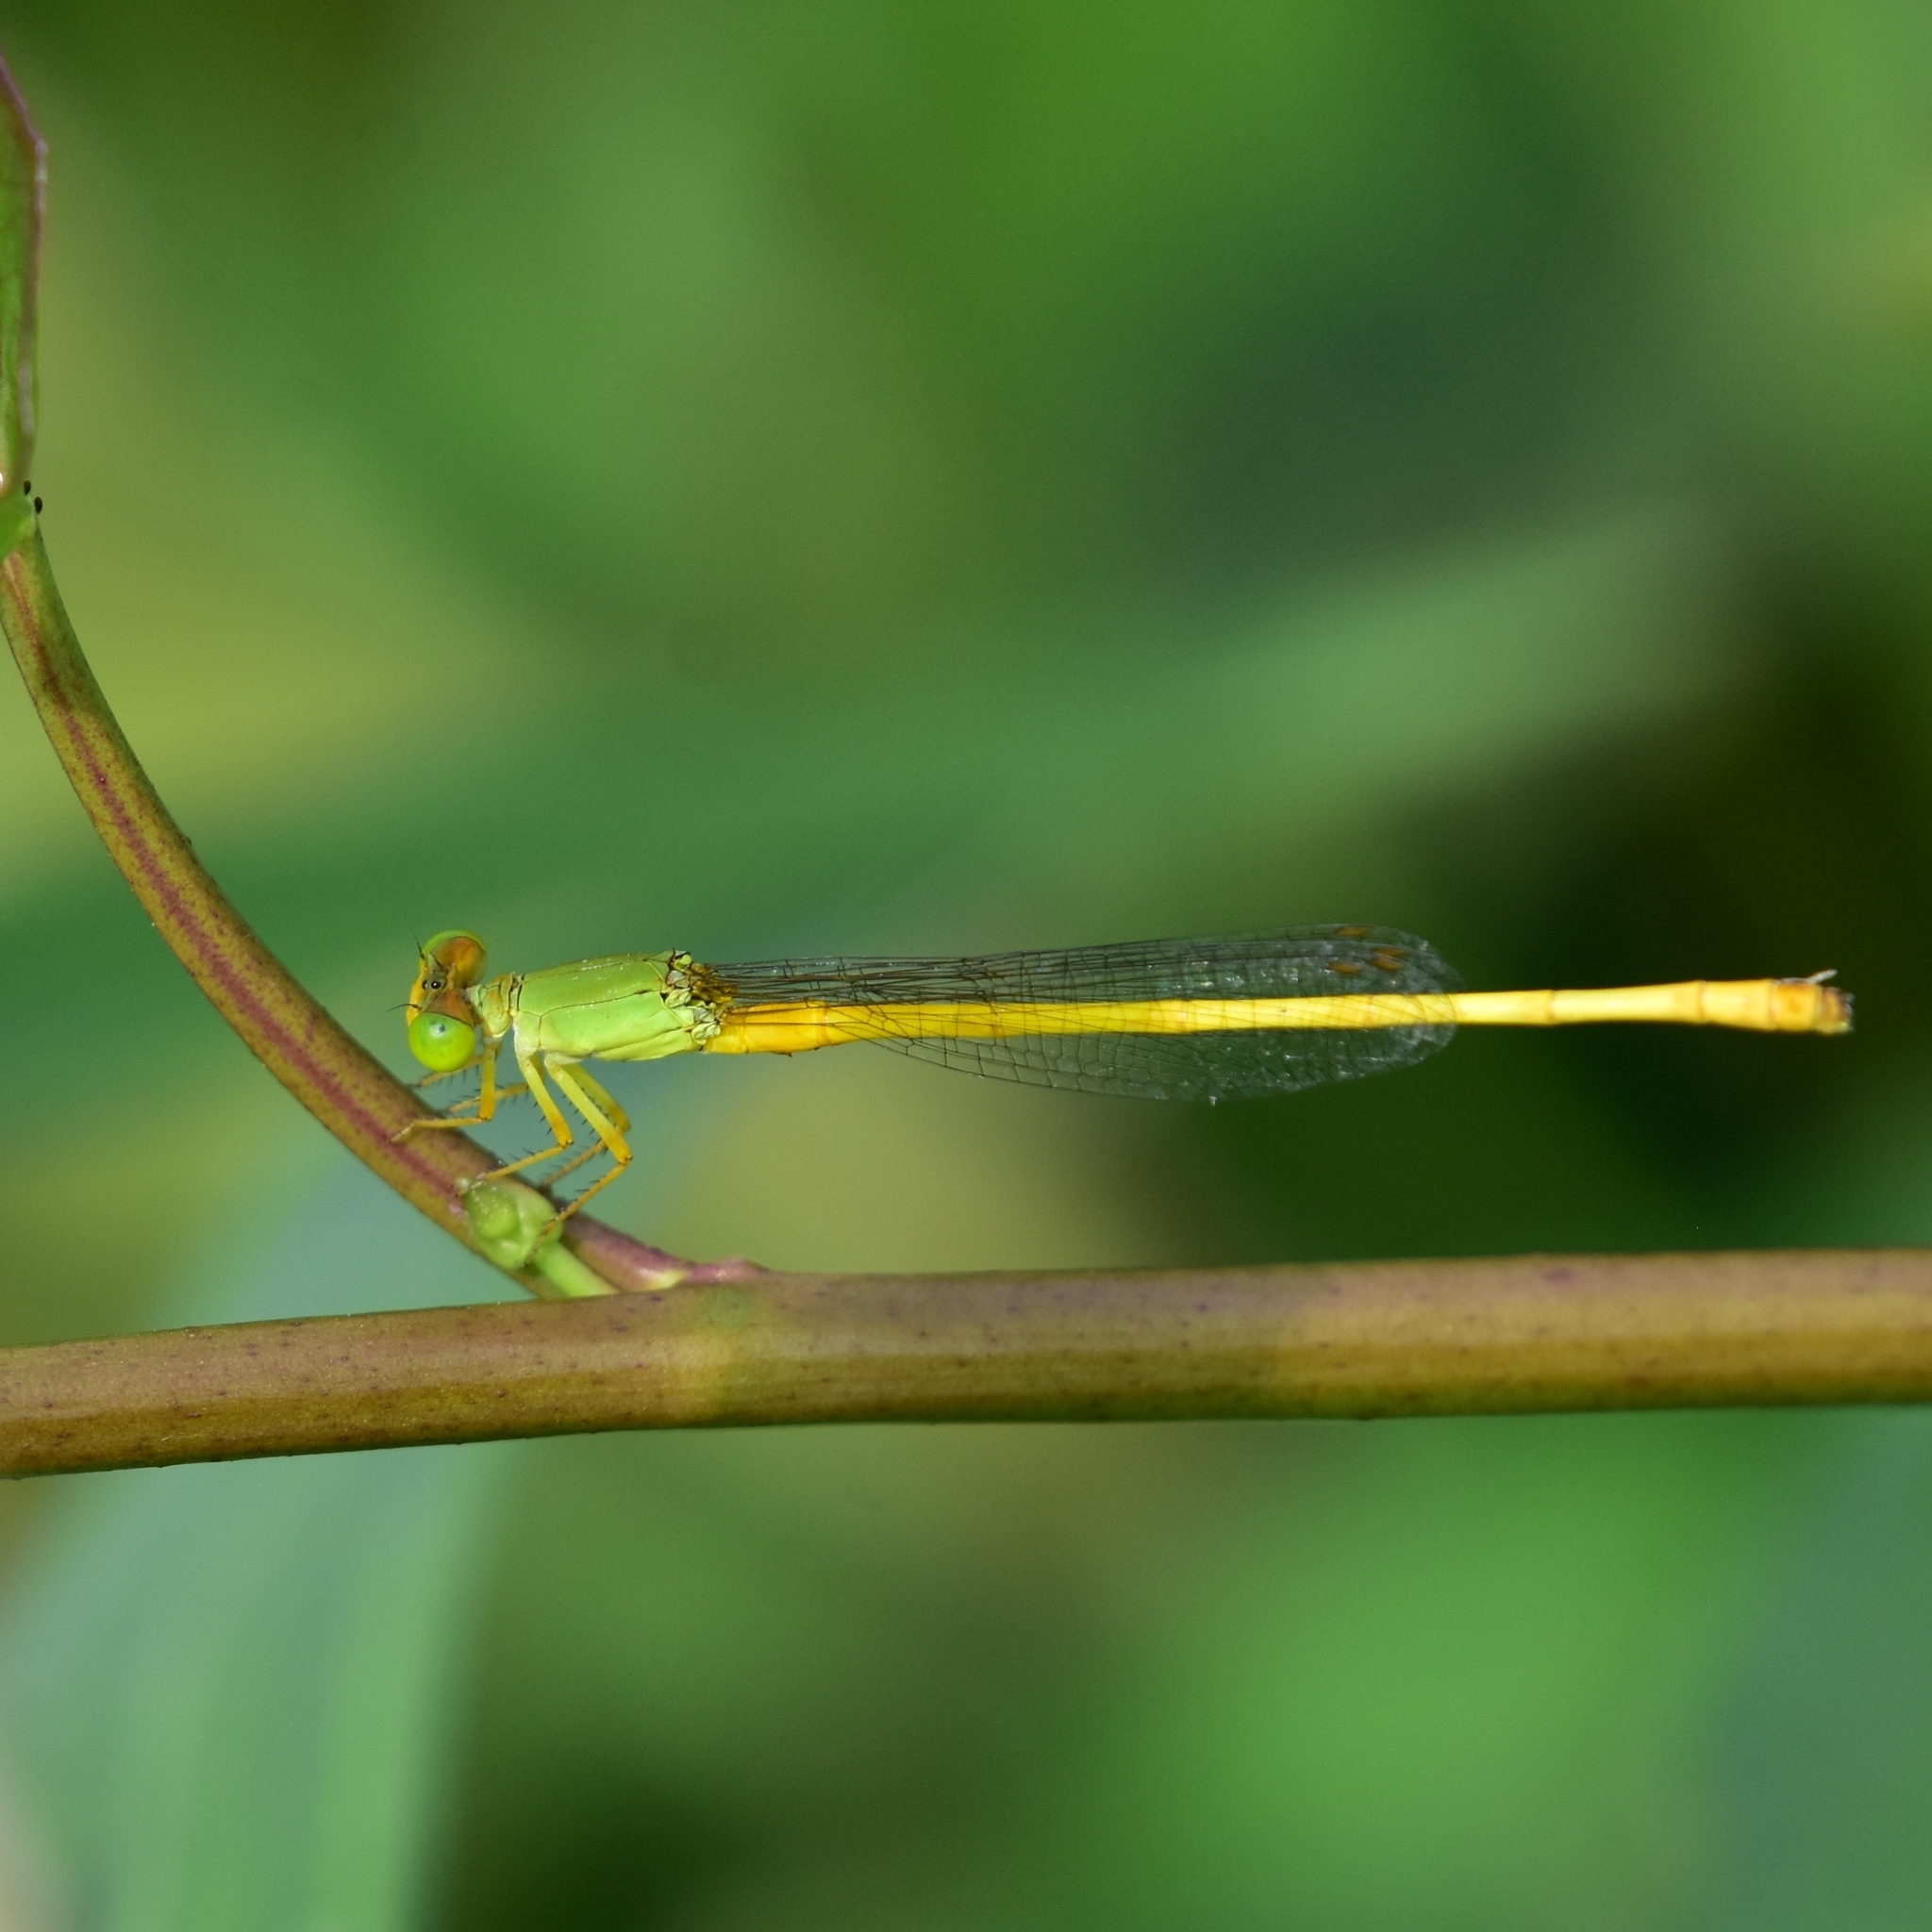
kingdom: Animalia
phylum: Arthropoda
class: Insecta
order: Odonata
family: Coenagrionidae
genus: Ceriagrion
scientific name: Ceriagrion coromandelianum
